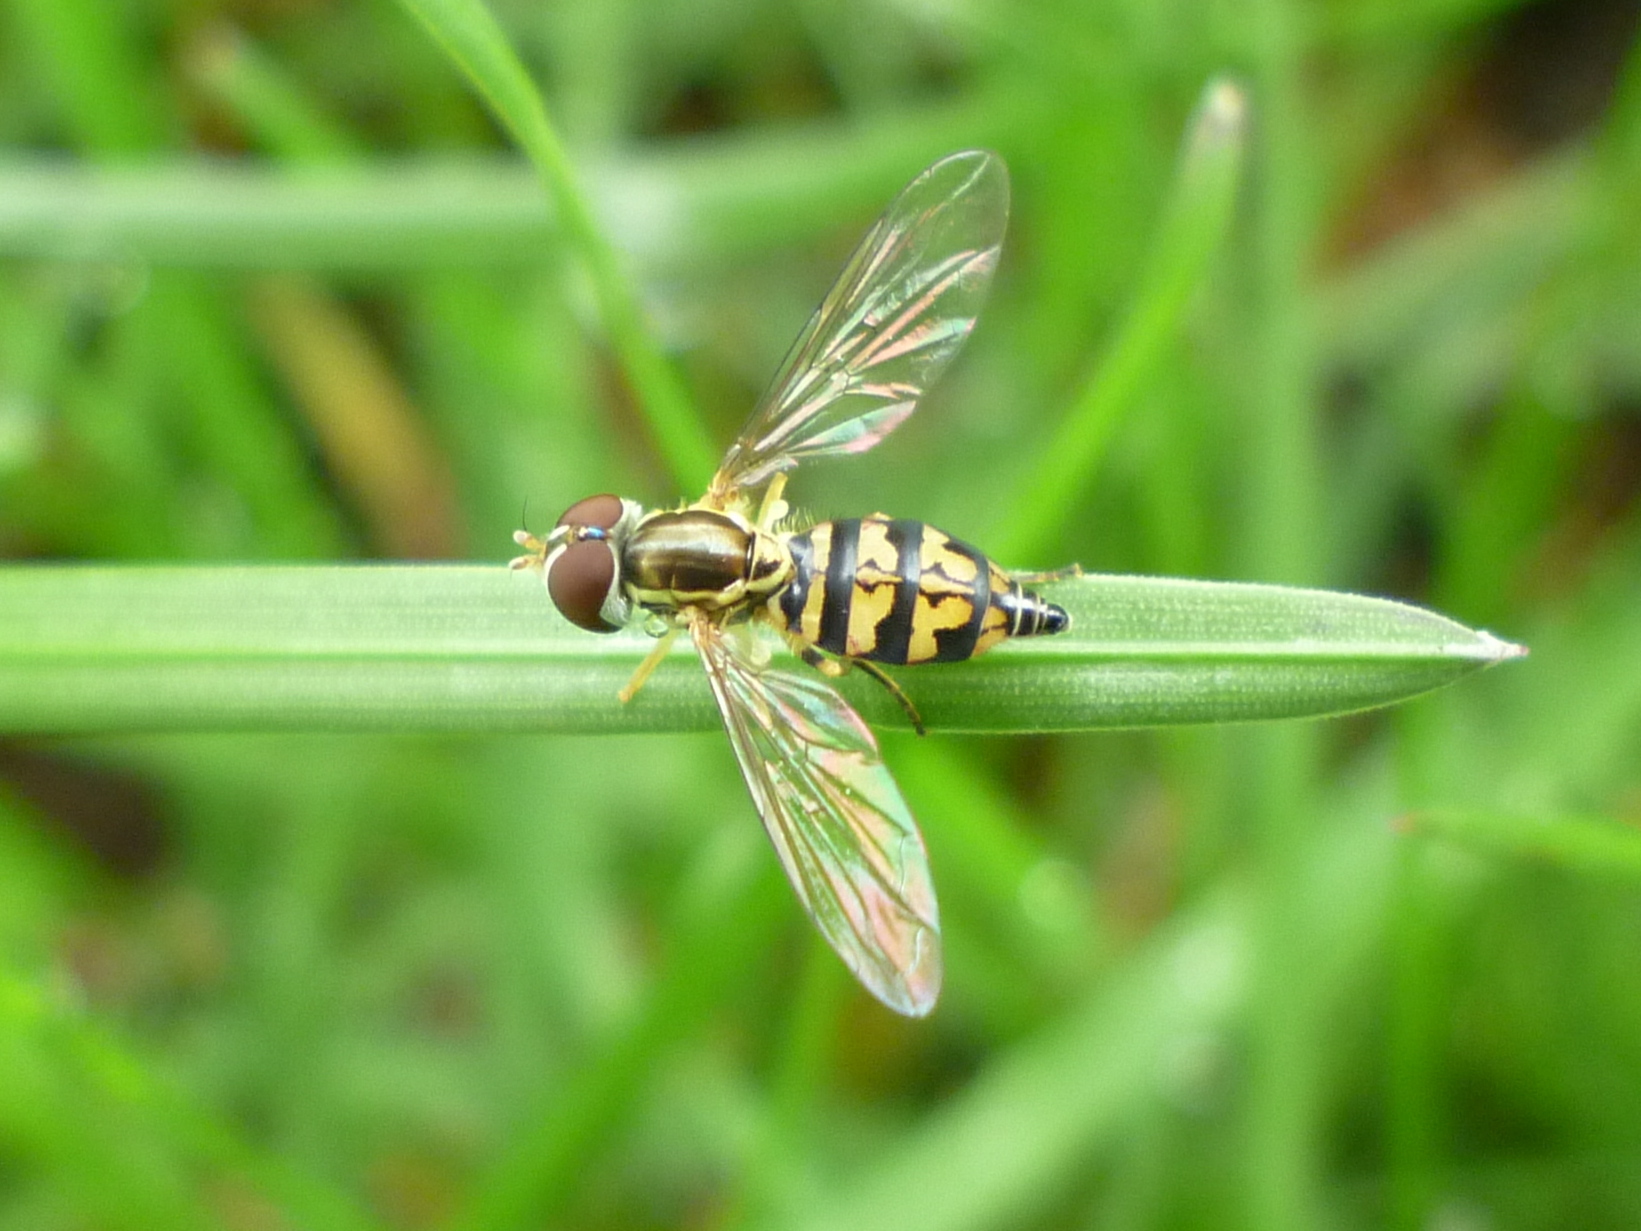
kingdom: Animalia
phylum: Arthropoda
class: Insecta
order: Diptera
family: Syrphidae
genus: Toxomerus
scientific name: Toxomerus geminatus
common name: Eastern calligrapher
